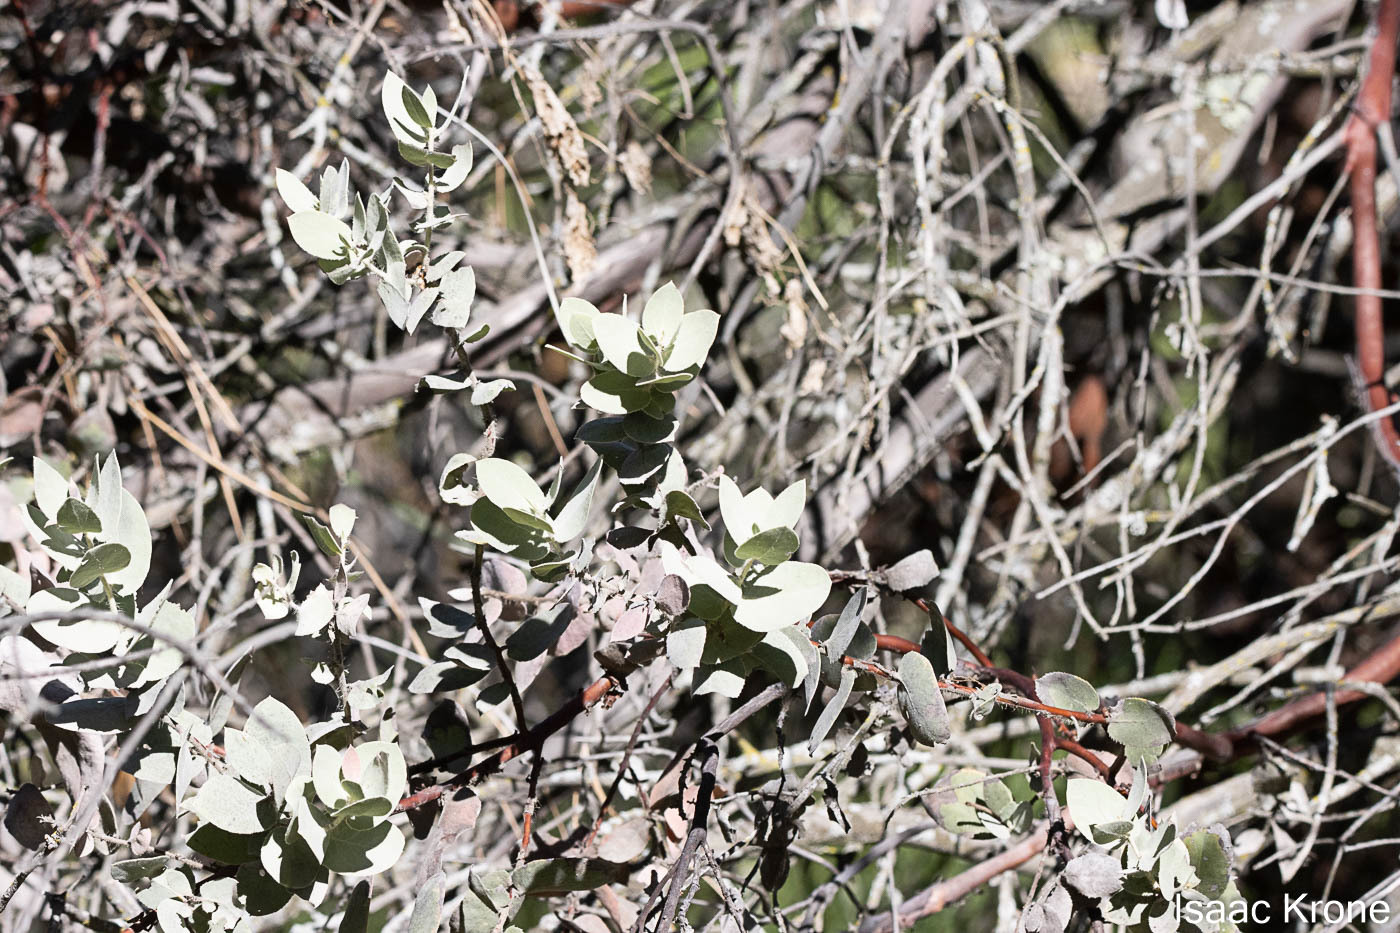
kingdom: Plantae
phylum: Tracheophyta
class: Magnoliopsida
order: Ericales
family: Ericaceae
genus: Arctostaphylos
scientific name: Arctostaphylos auriculata
